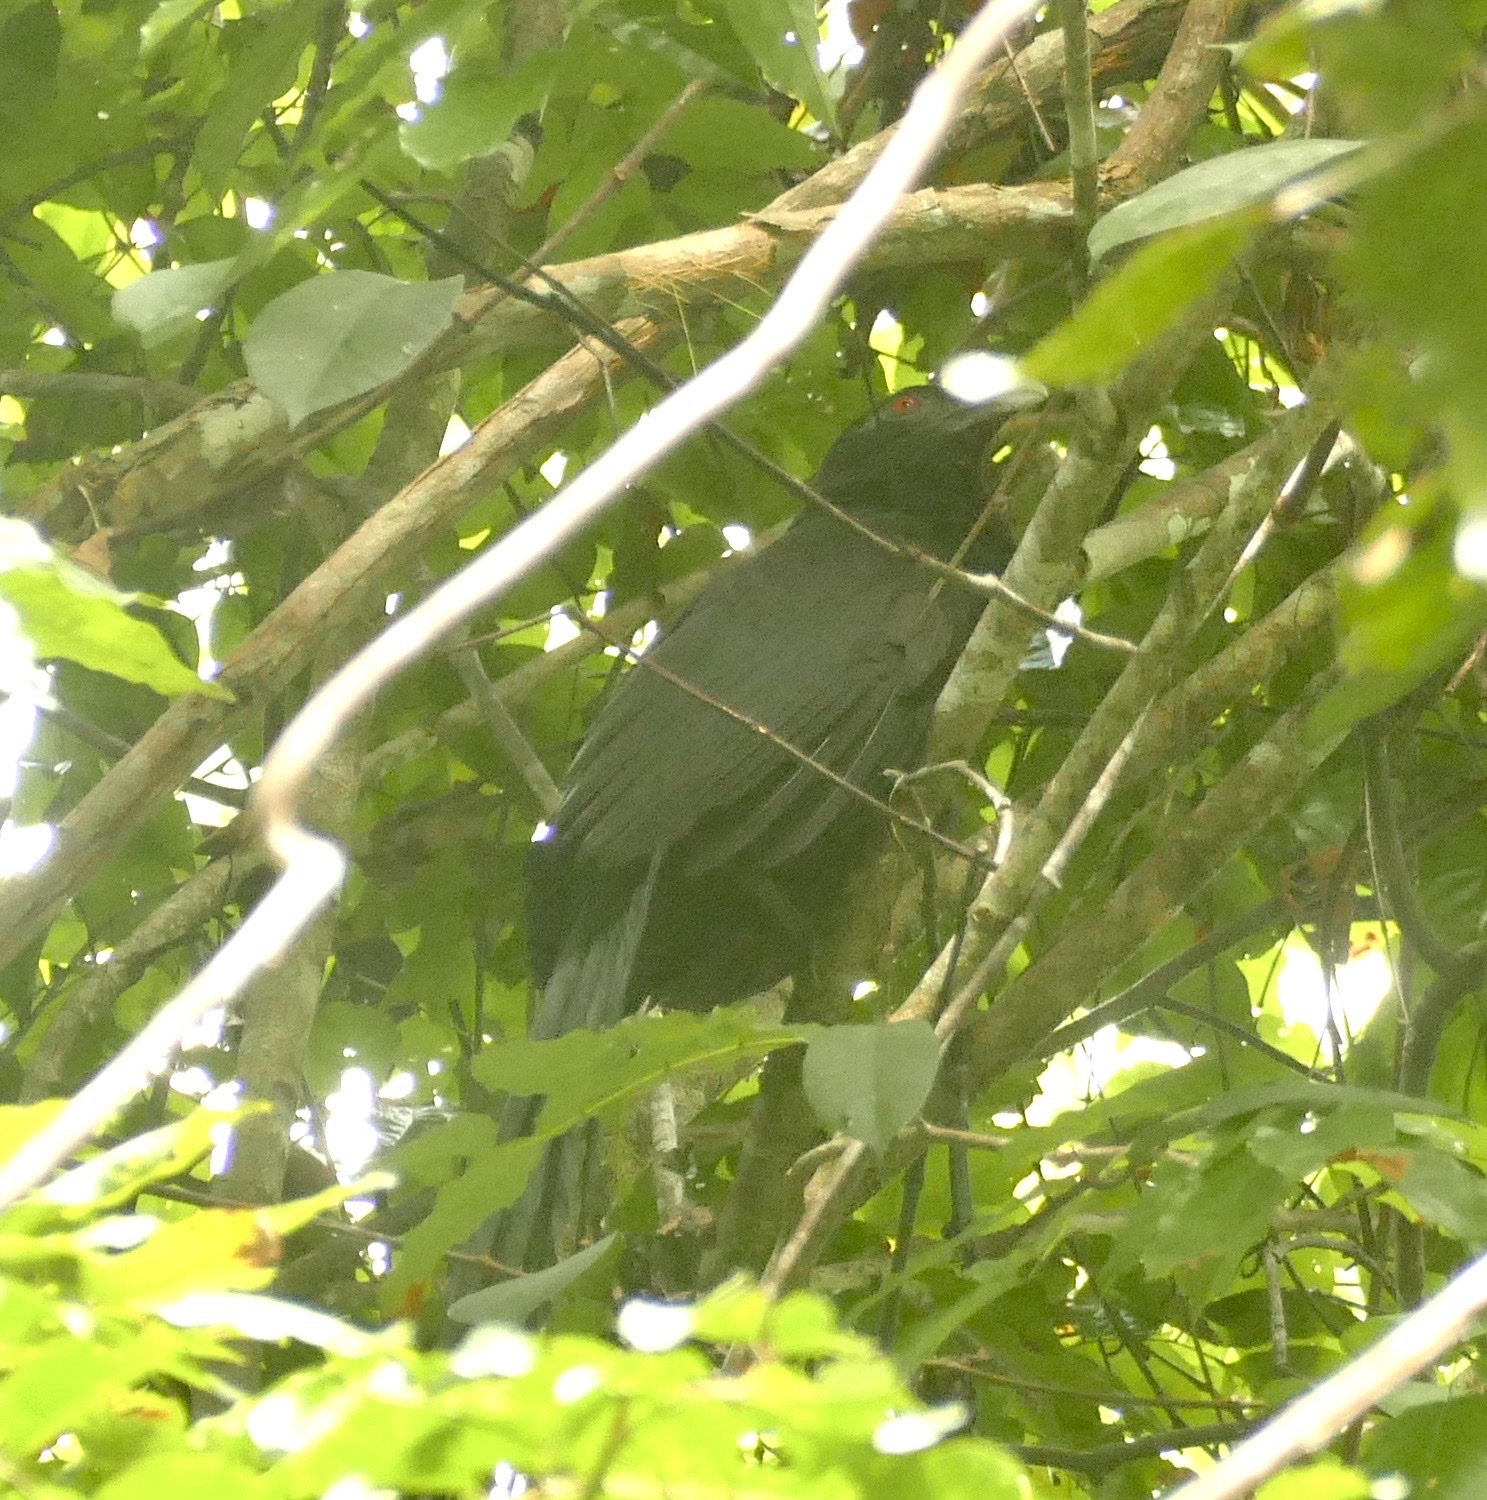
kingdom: Animalia
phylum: Chordata
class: Aves
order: Cuculiformes
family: Cuculidae
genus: Centropus
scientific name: Centropus menbeki
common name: Ivory-billed coucal
